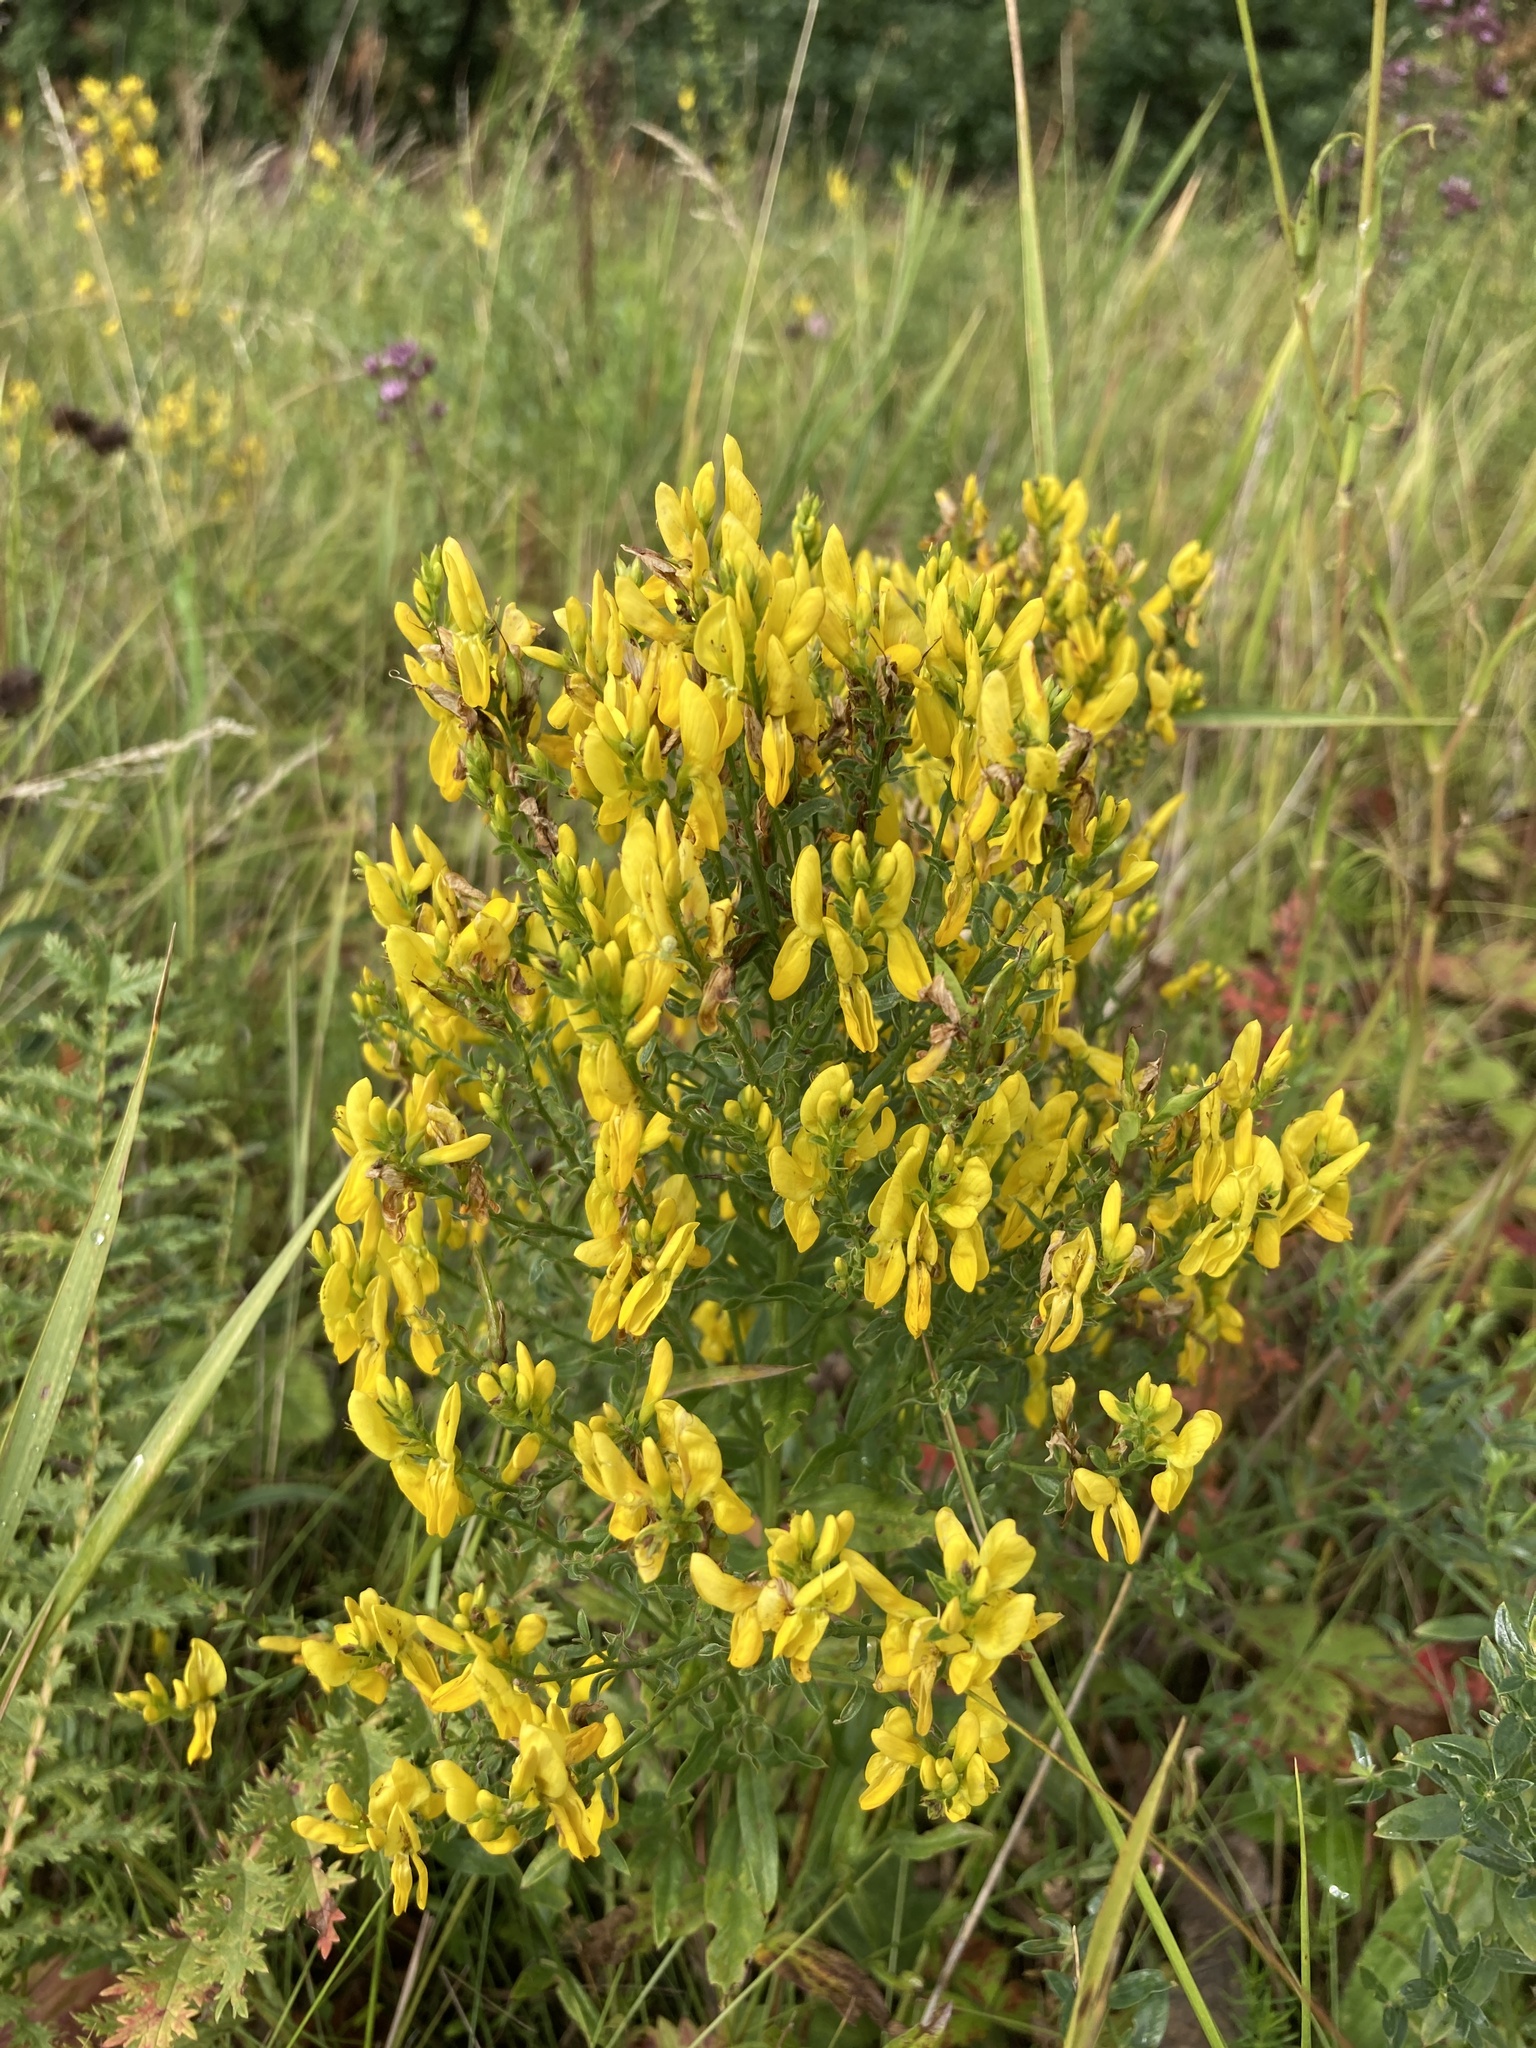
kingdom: Plantae
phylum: Tracheophyta
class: Magnoliopsida
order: Fabales
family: Fabaceae
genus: Genista
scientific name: Genista tinctoria
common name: Dyer's greenweed
